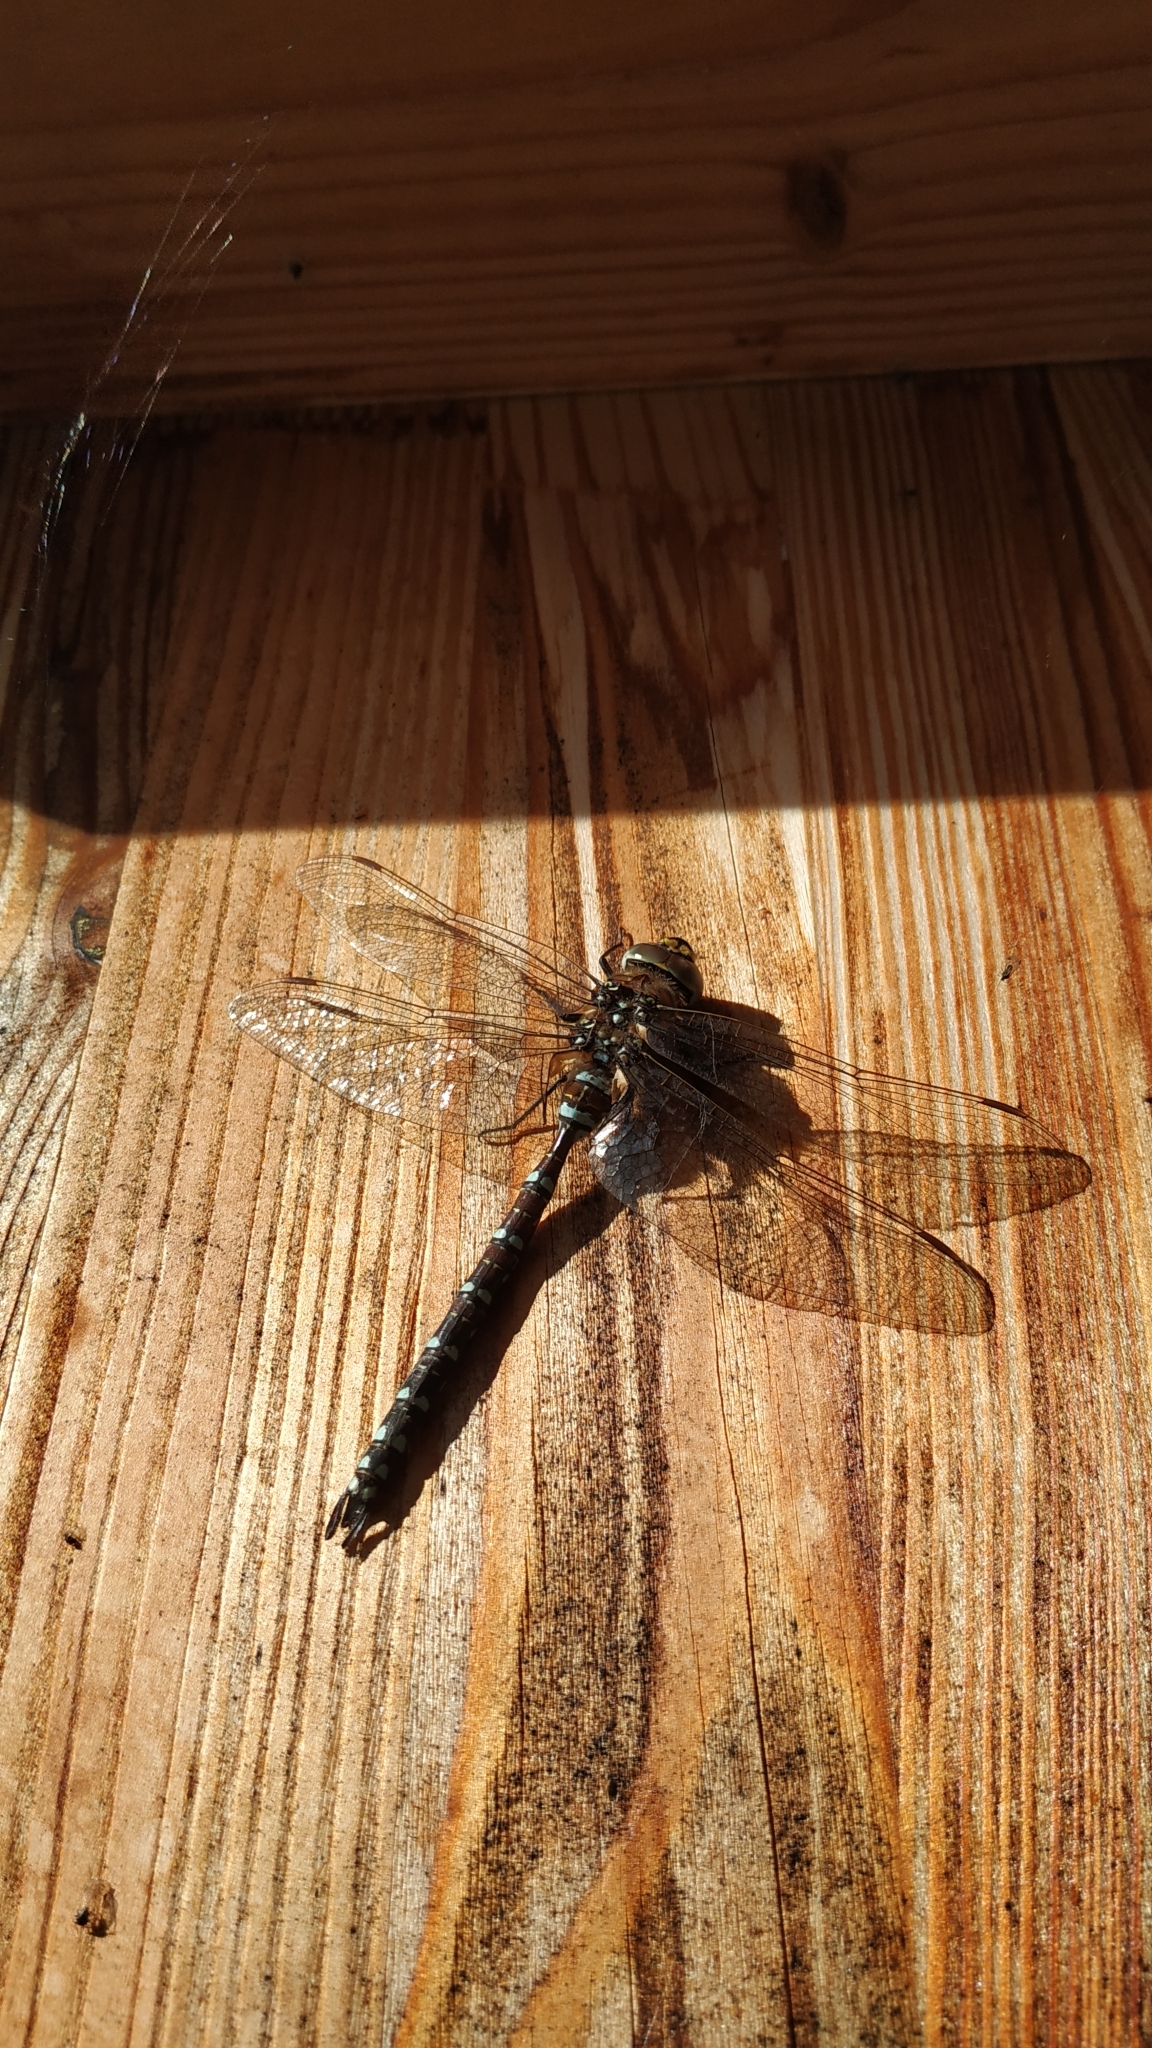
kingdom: Animalia
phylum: Arthropoda
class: Insecta
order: Odonata
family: Aeshnidae
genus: Aeshna
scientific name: Aeshna juncea
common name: Moorland hawker
